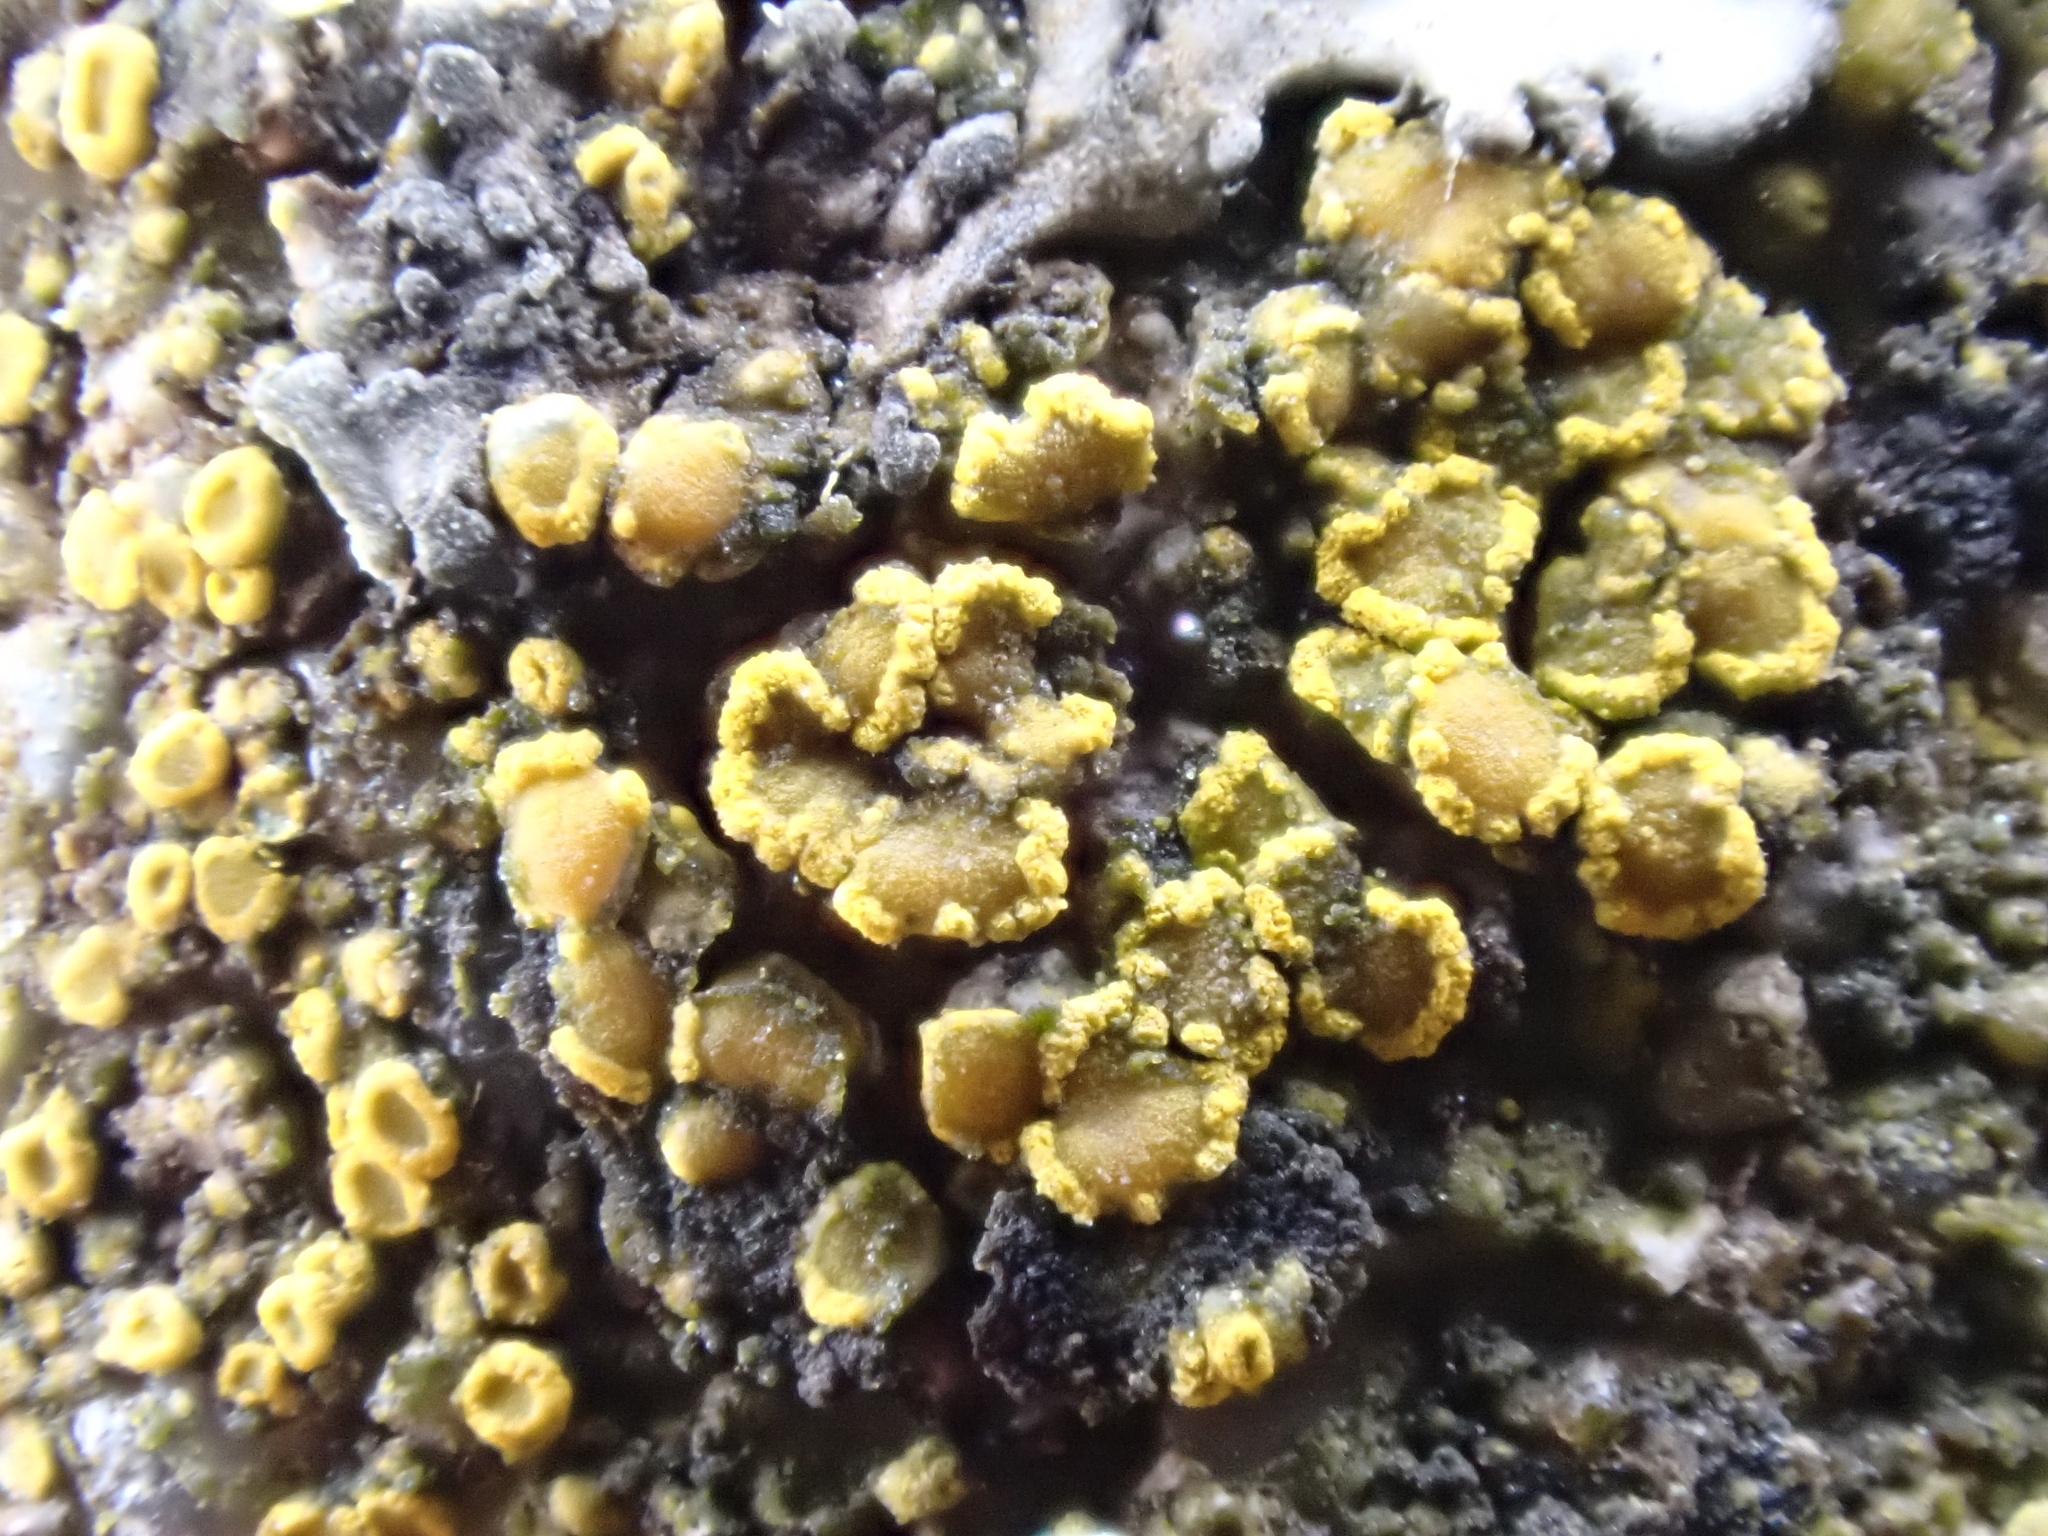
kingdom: Fungi
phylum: Ascomycota
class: Candelariomycetes
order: Candelariales
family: Candelariaceae
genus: Candelariella
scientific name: Candelariella aurella
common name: Hidden goldspeck lichen
